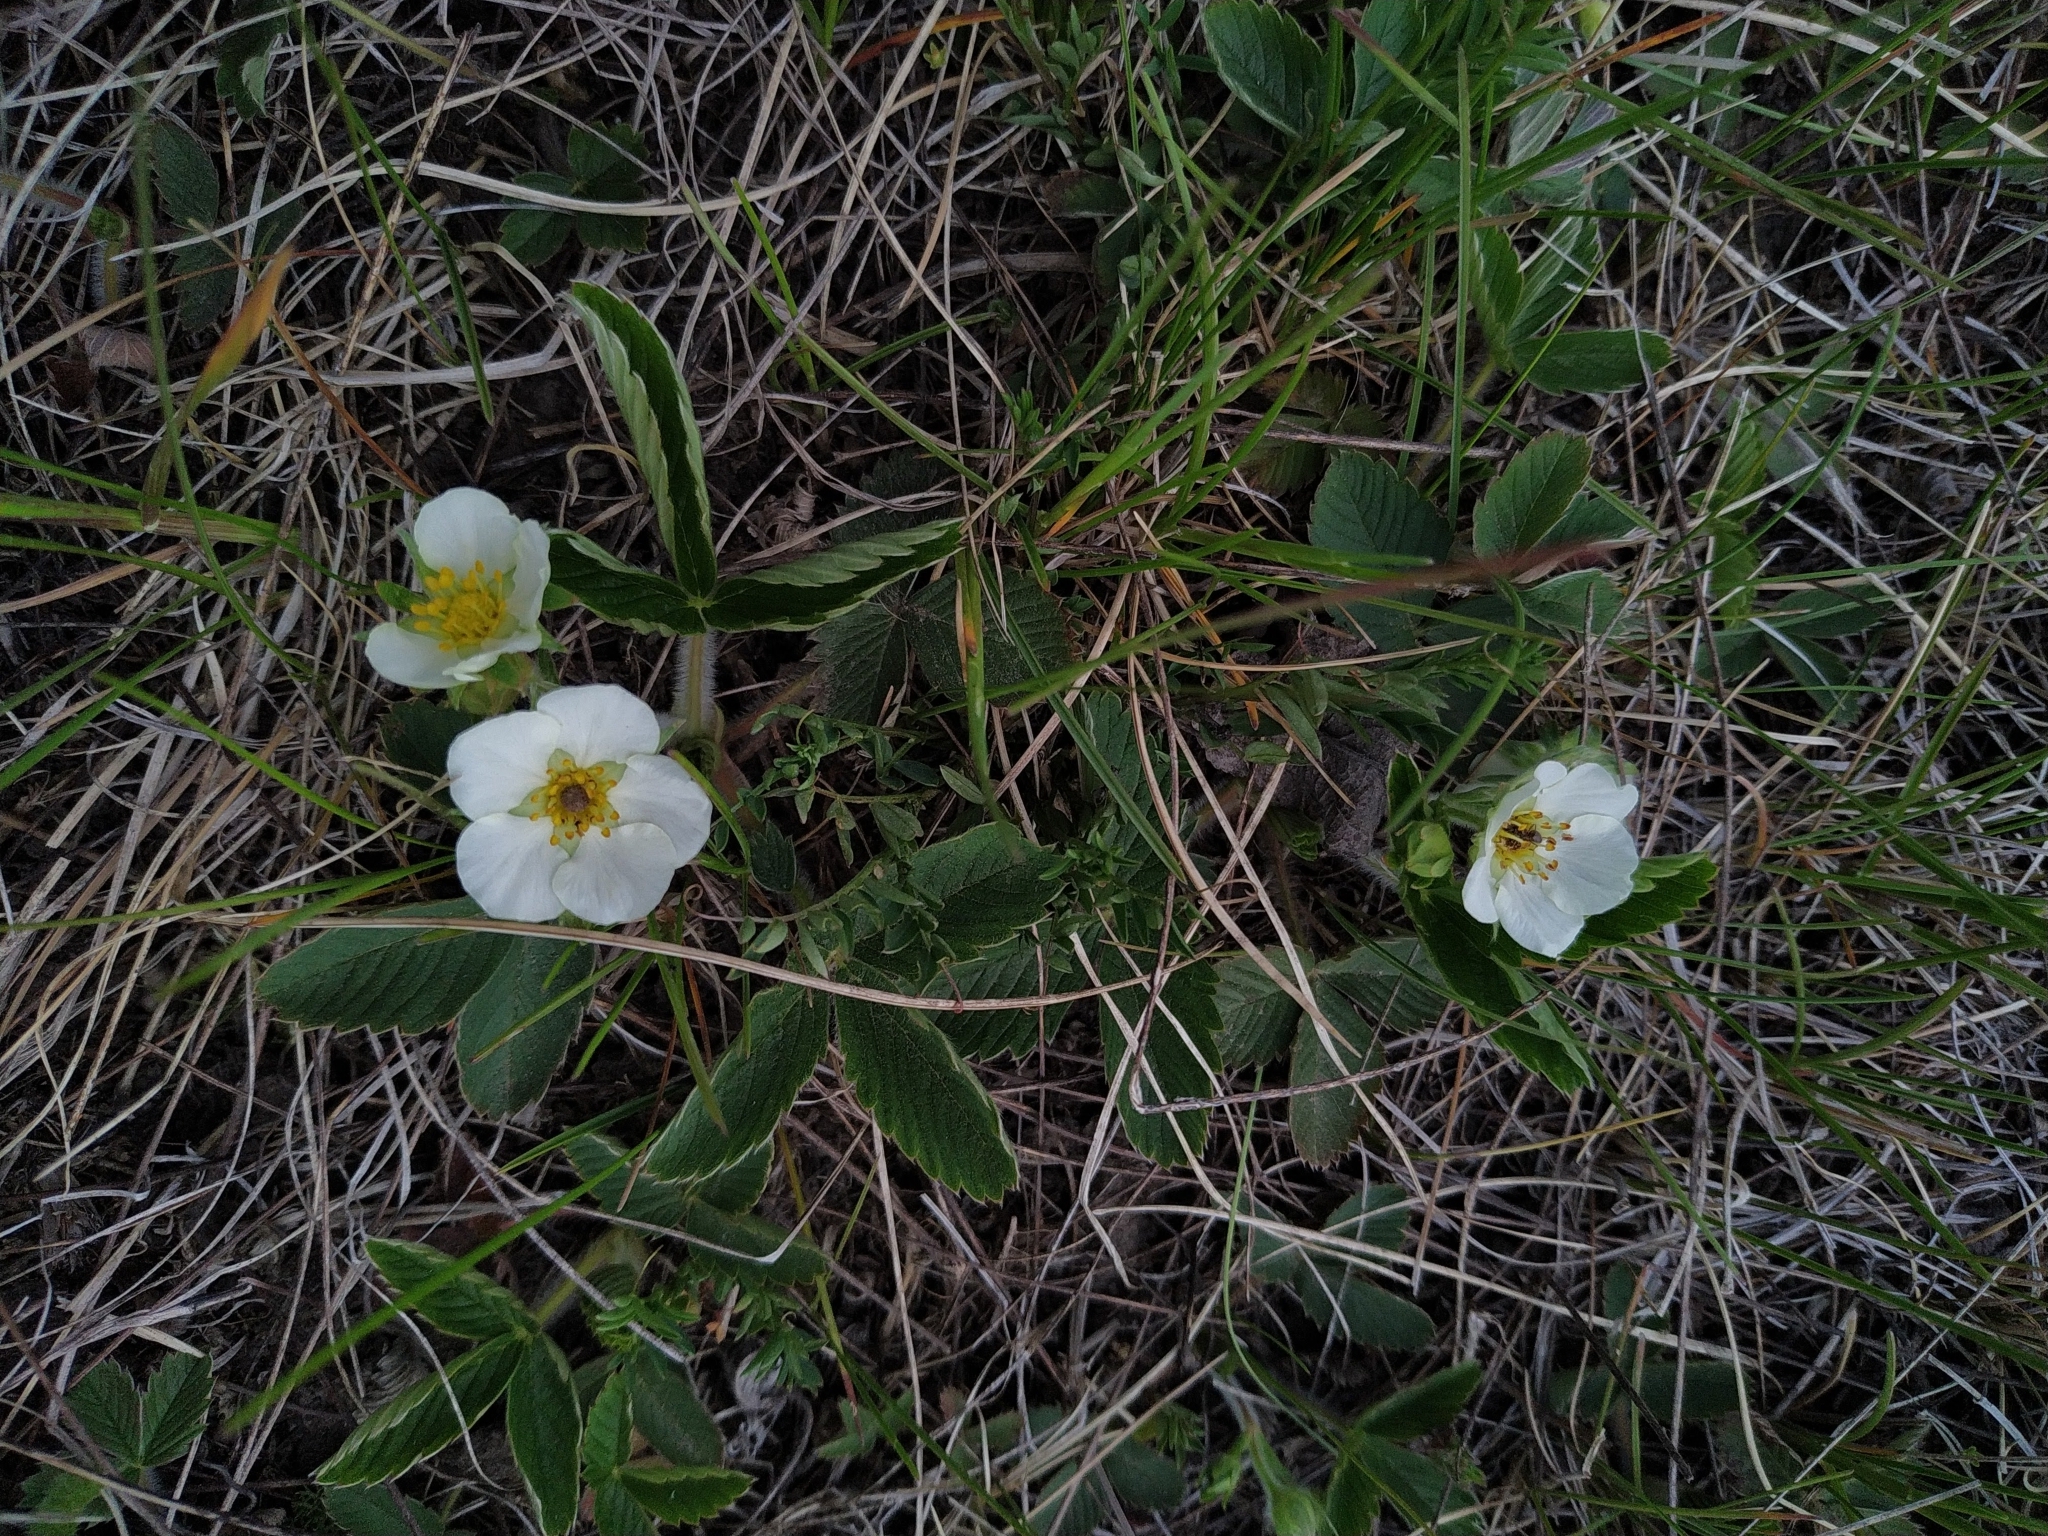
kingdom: Plantae
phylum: Tracheophyta
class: Magnoliopsida
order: Rosales
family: Rosaceae
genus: Fragaria
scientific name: Fragaria viridis
